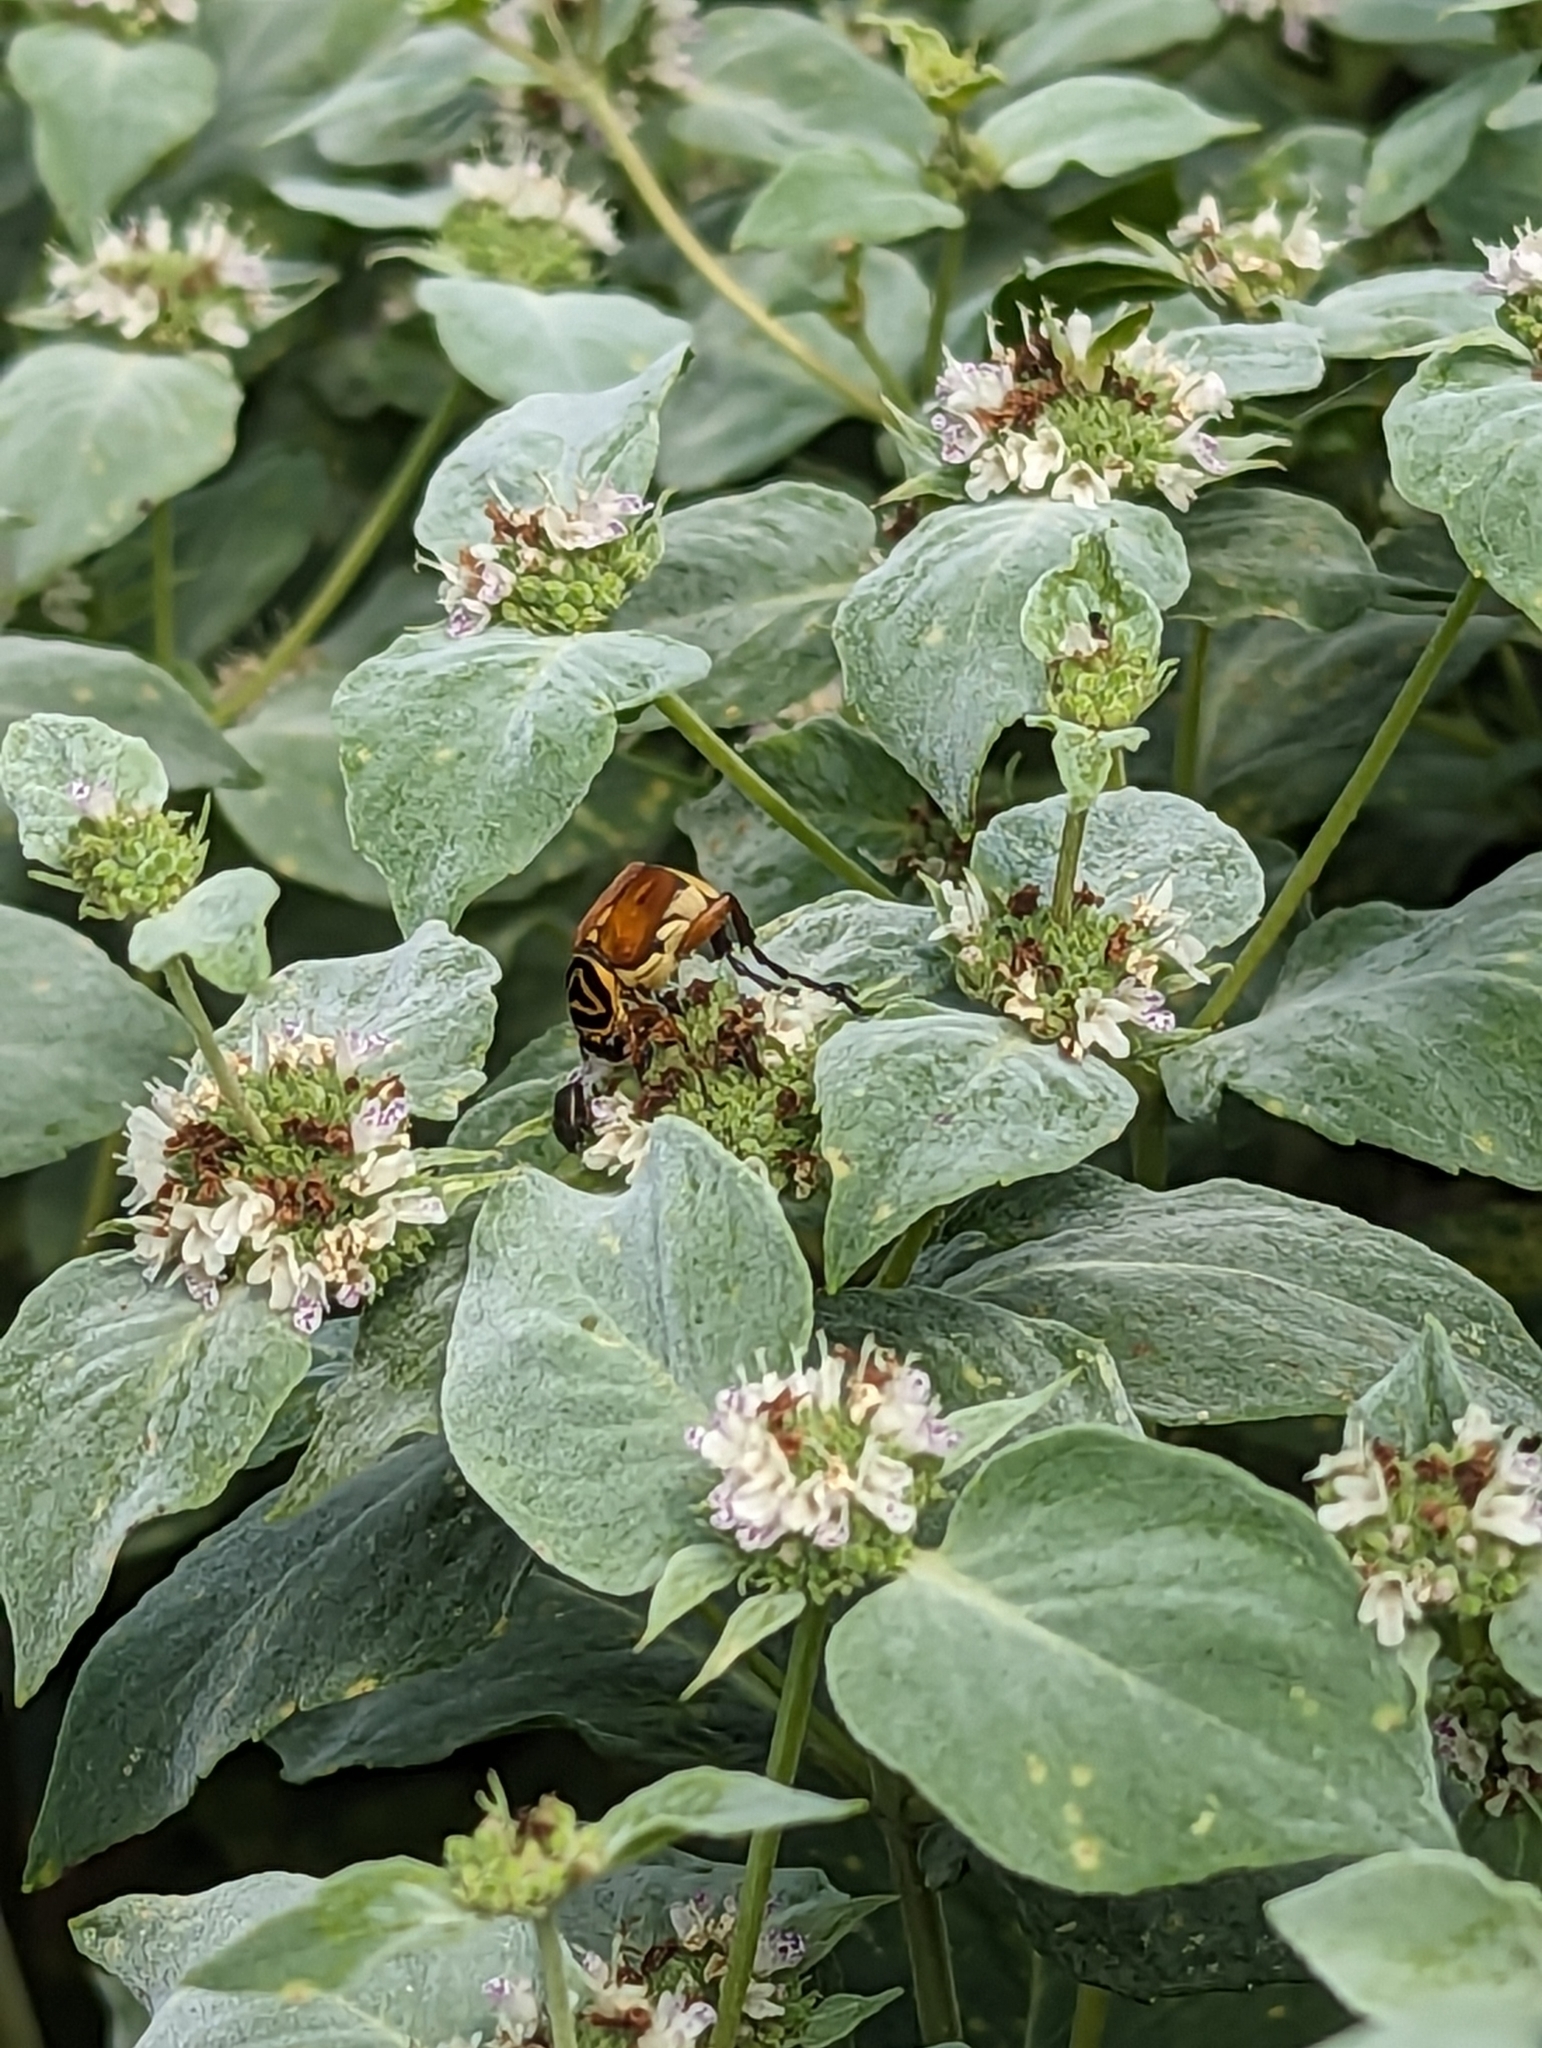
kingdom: Animalia
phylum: Arthropoda
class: Insecta
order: Coleoptera
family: Scarabaeidae
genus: Trigonopeltastes
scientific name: Trigonopeltastes delta
